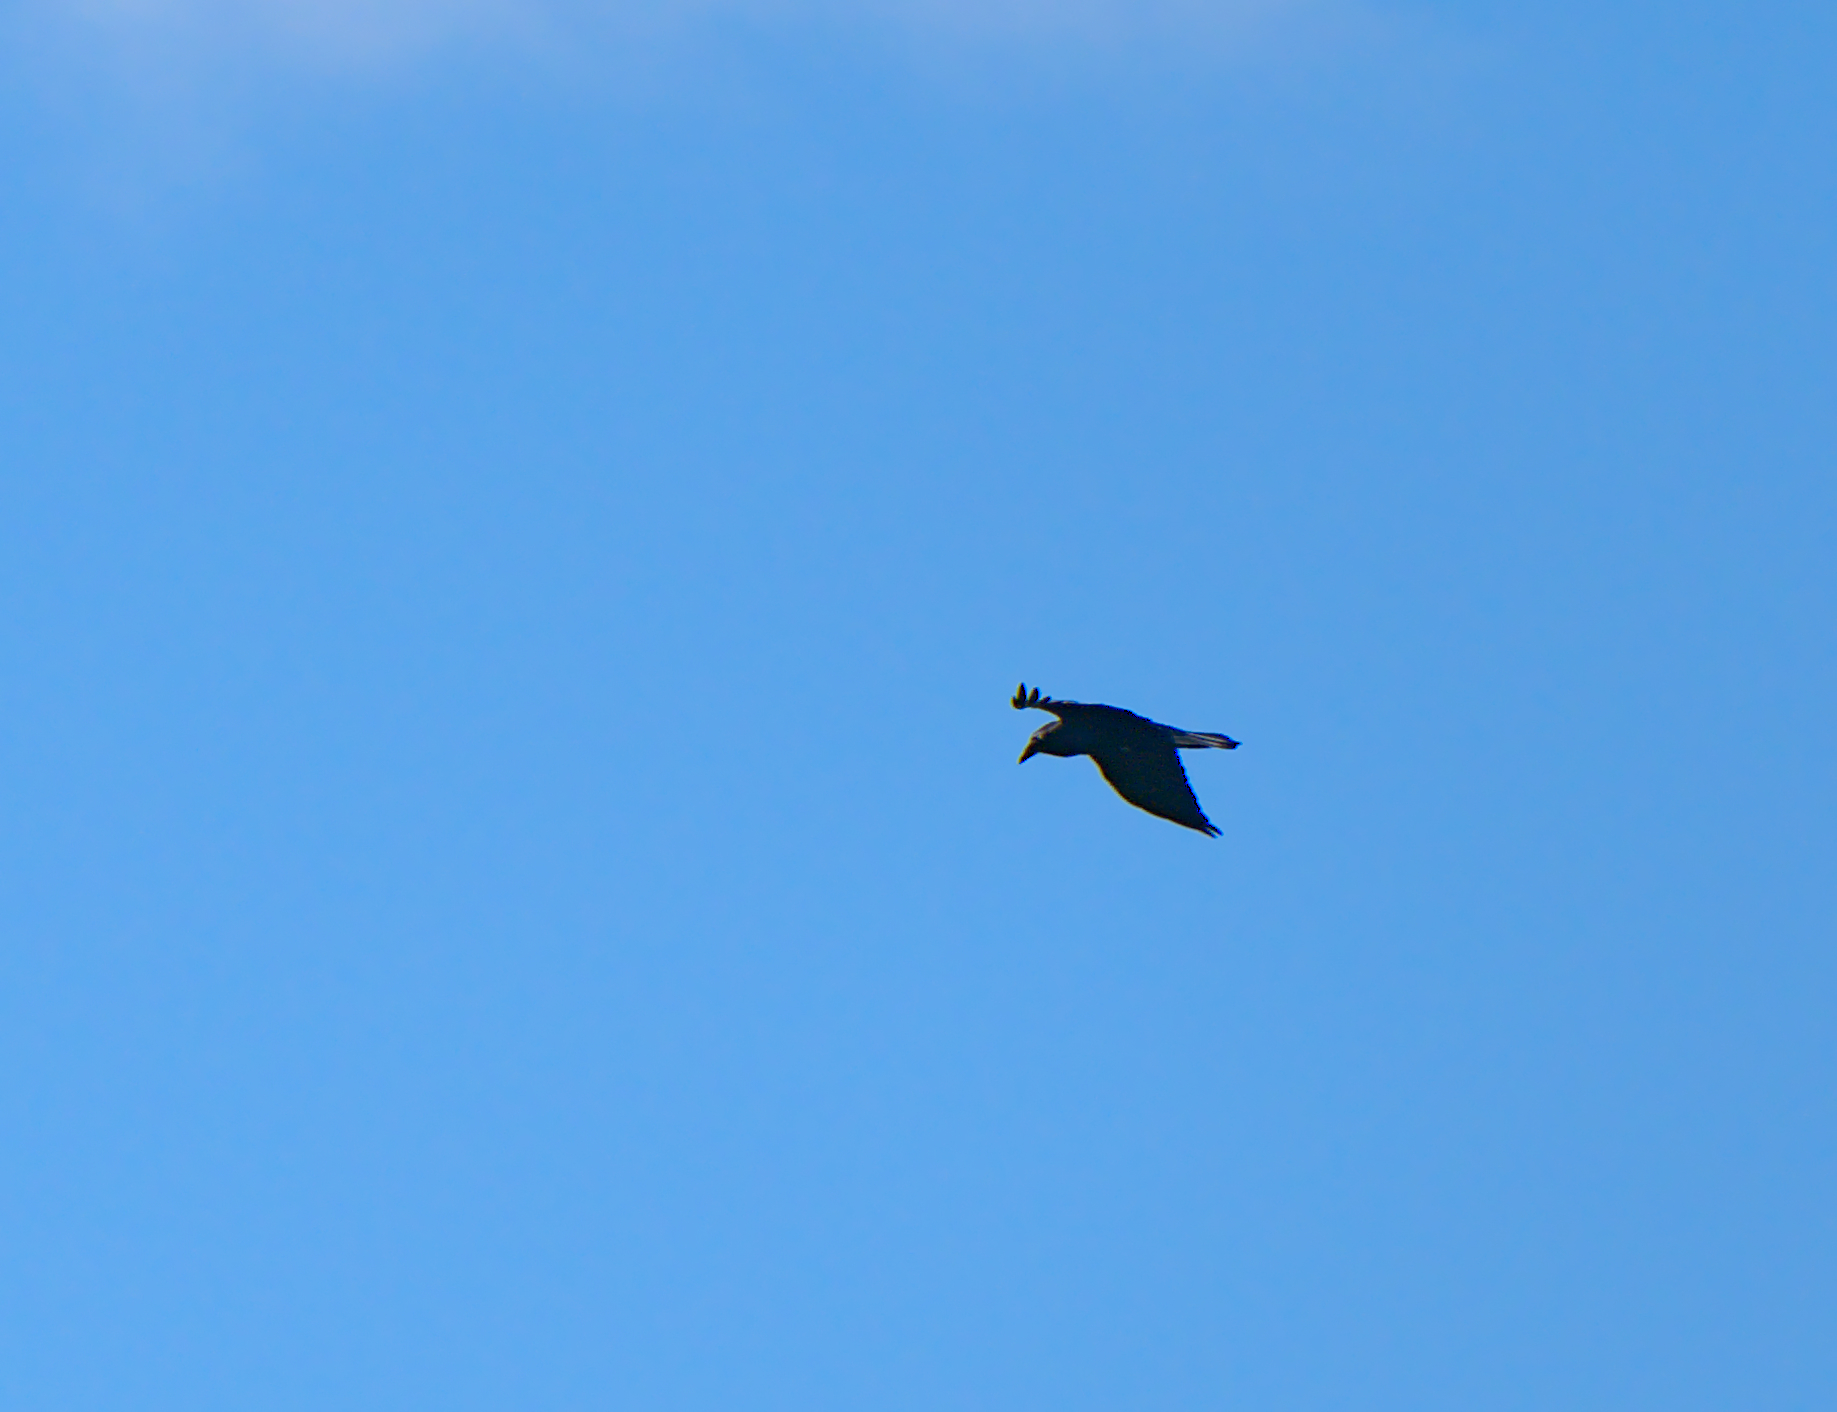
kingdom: Animalia
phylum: Chordata
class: Aves
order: Passeriformes
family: Corvidae
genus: Corvus
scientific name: Corvus corax
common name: Common raven
